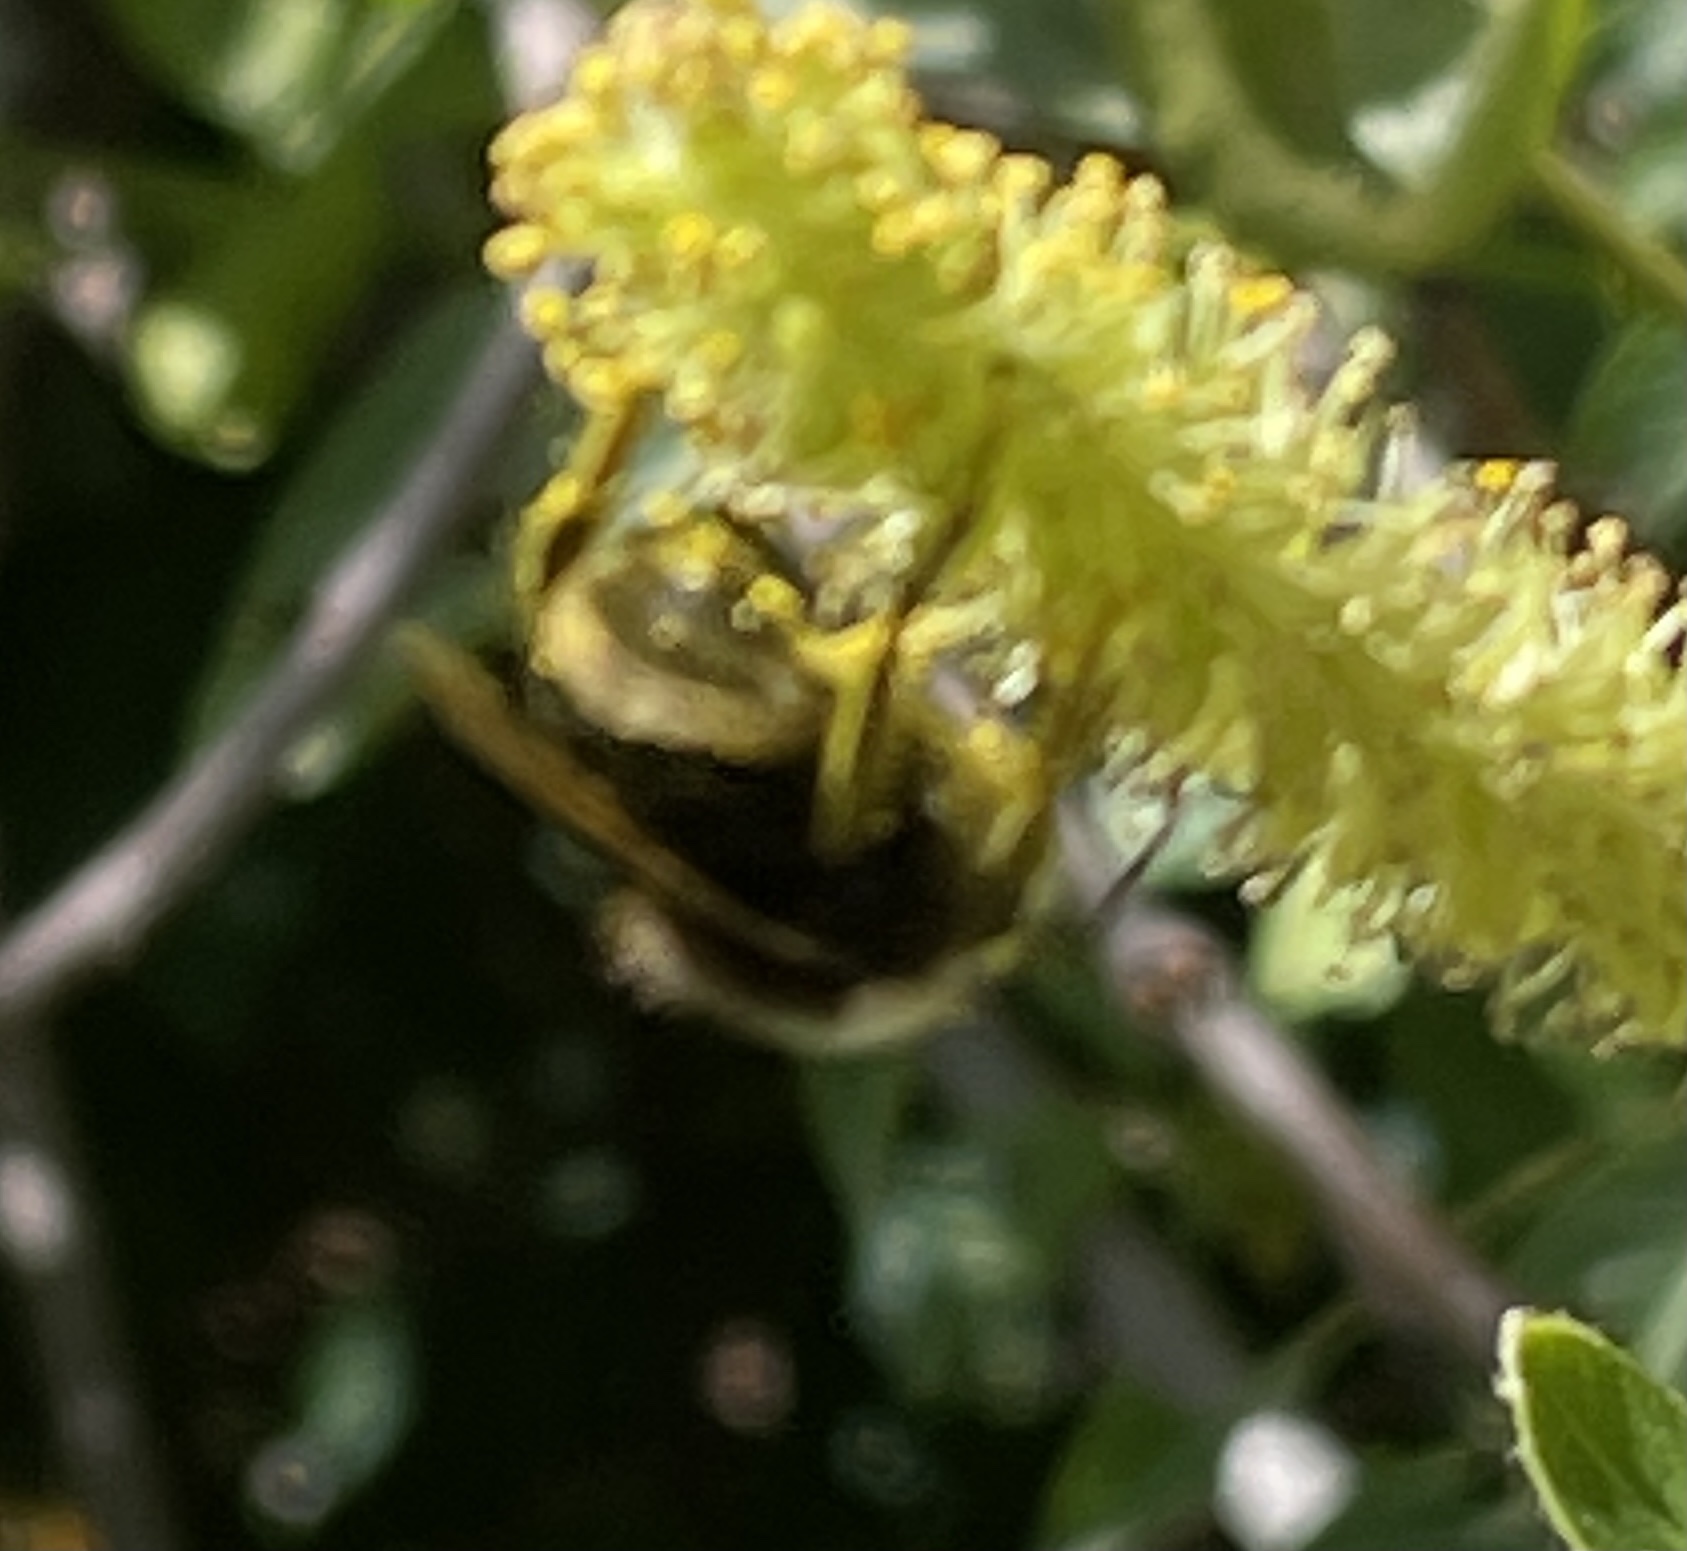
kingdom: Animalia
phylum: Arthropoda
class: Insecta
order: Hymenoptera
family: Apidae
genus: Pyrobombus
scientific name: Pyrobombus
